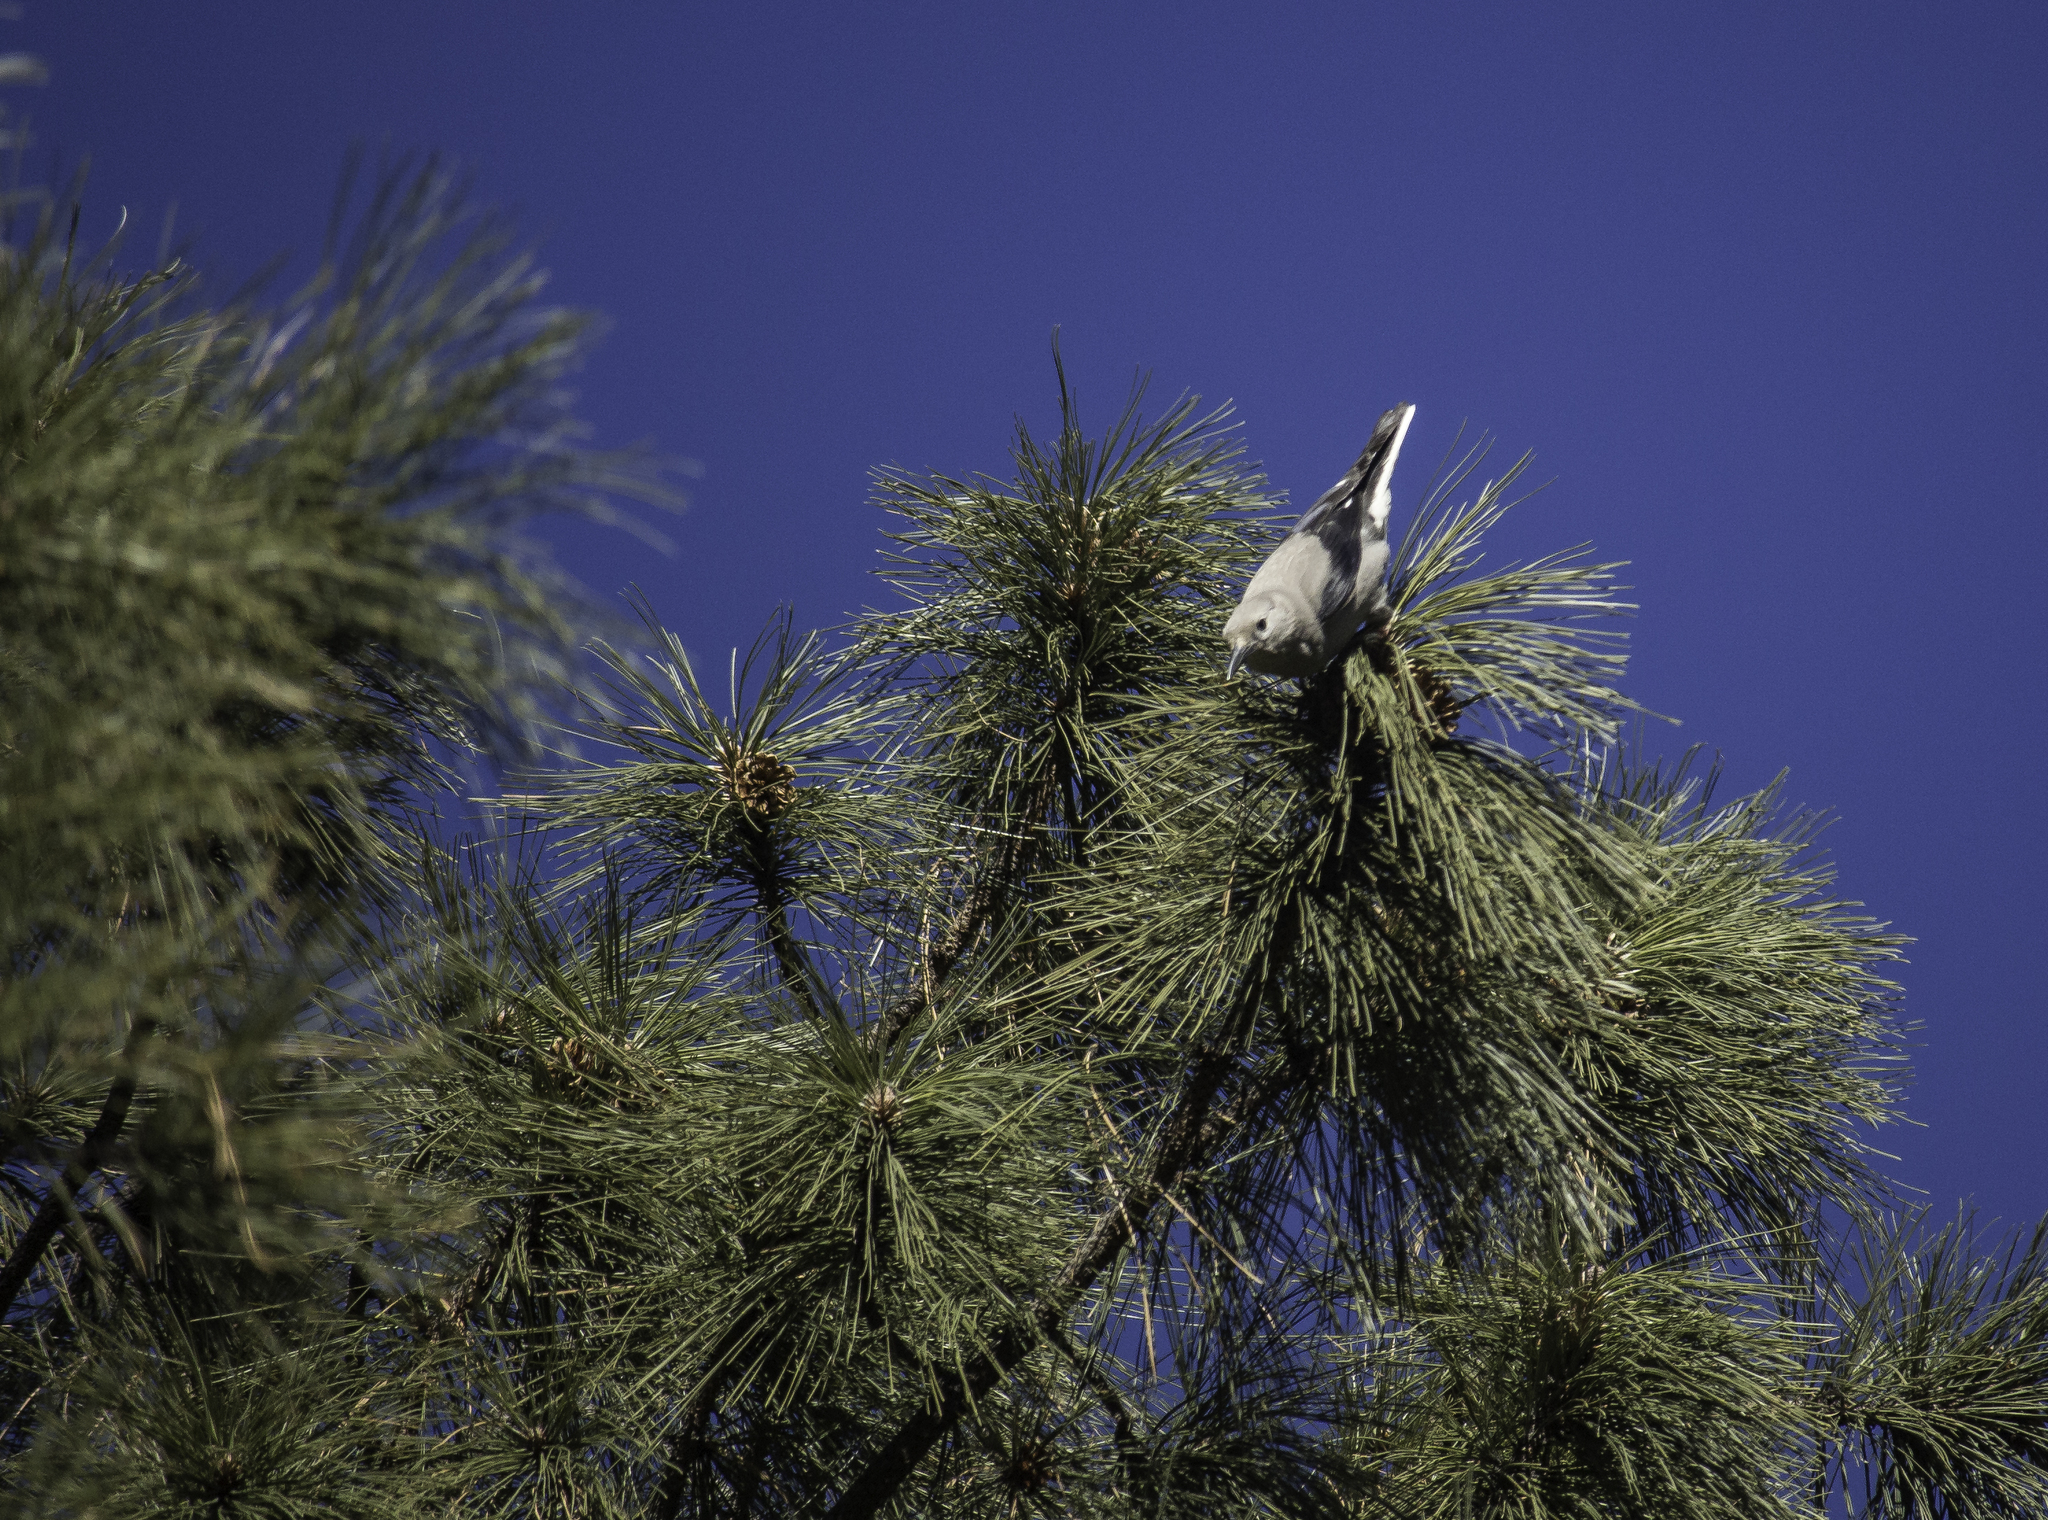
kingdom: Animalia
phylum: Chordata
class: Aves
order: Passeriformes
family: Corvidae
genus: Nucifraga
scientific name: Nucifraga columbiana
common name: Clark's nutcracker
